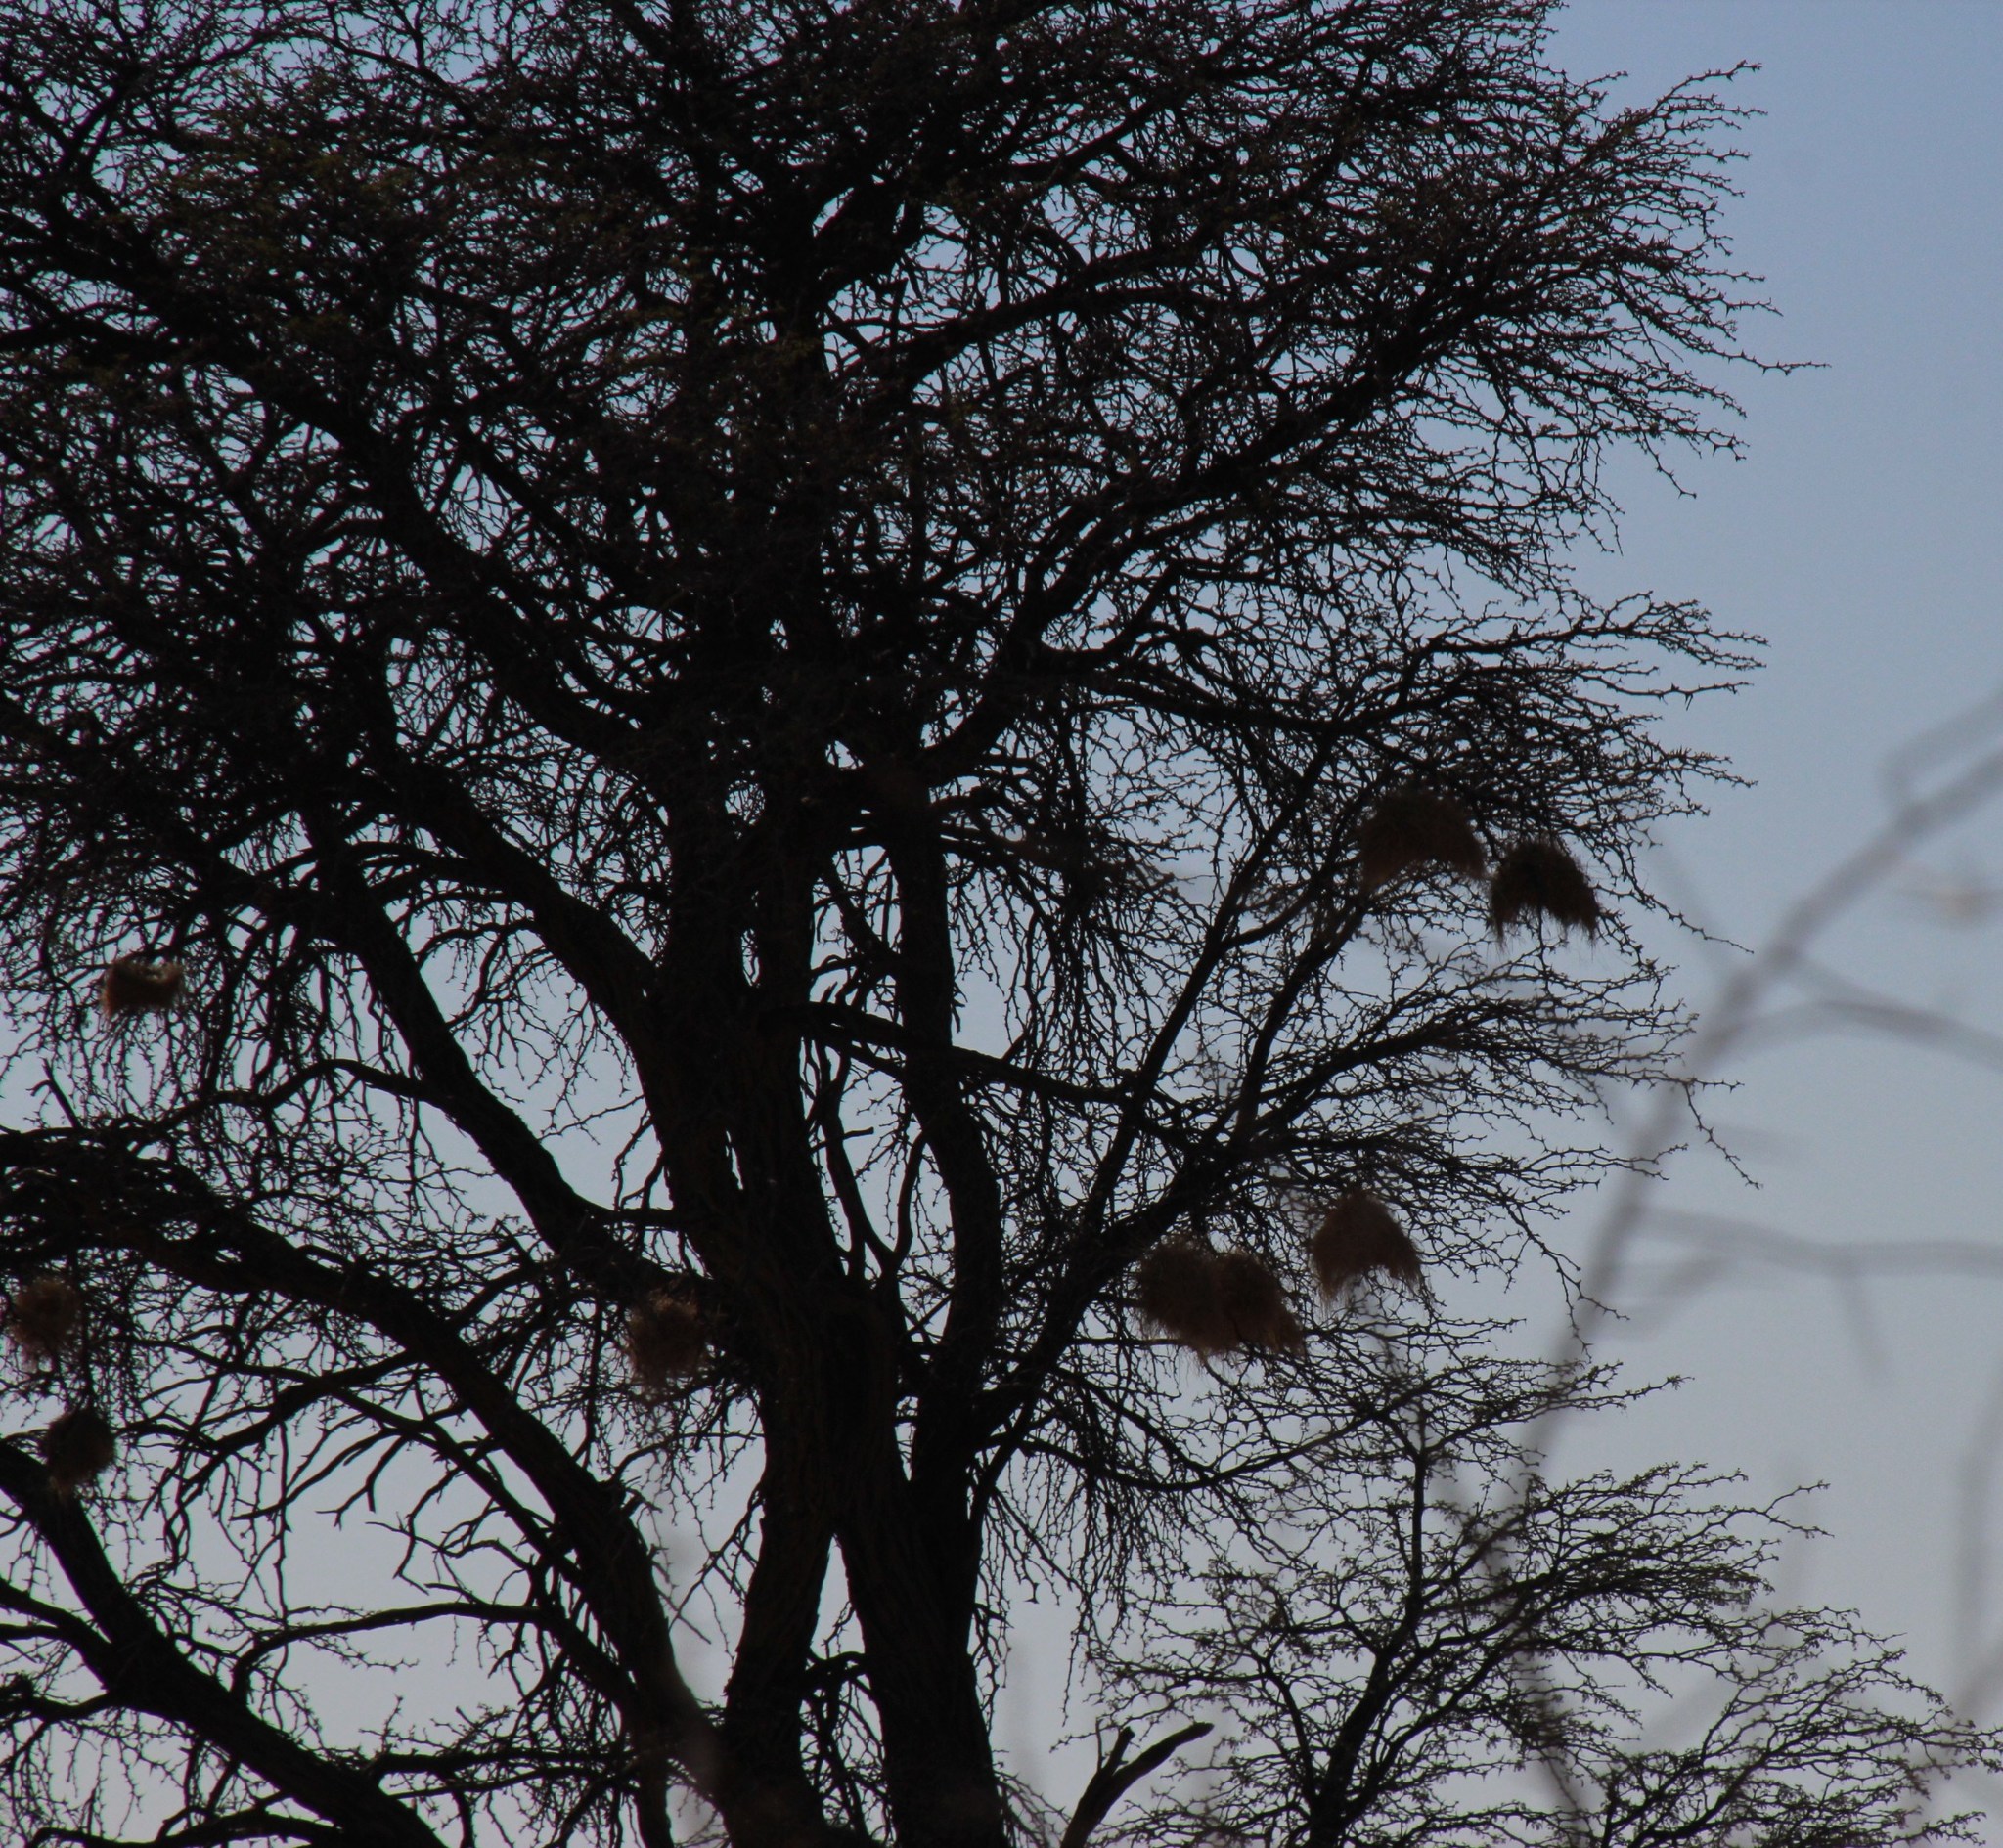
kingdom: Animalia
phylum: Chordata
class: Aves
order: Passeriformes
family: Passeridae
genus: Plocepasser
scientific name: Plocepasser mahali
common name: White-browed sparrow-weaver
